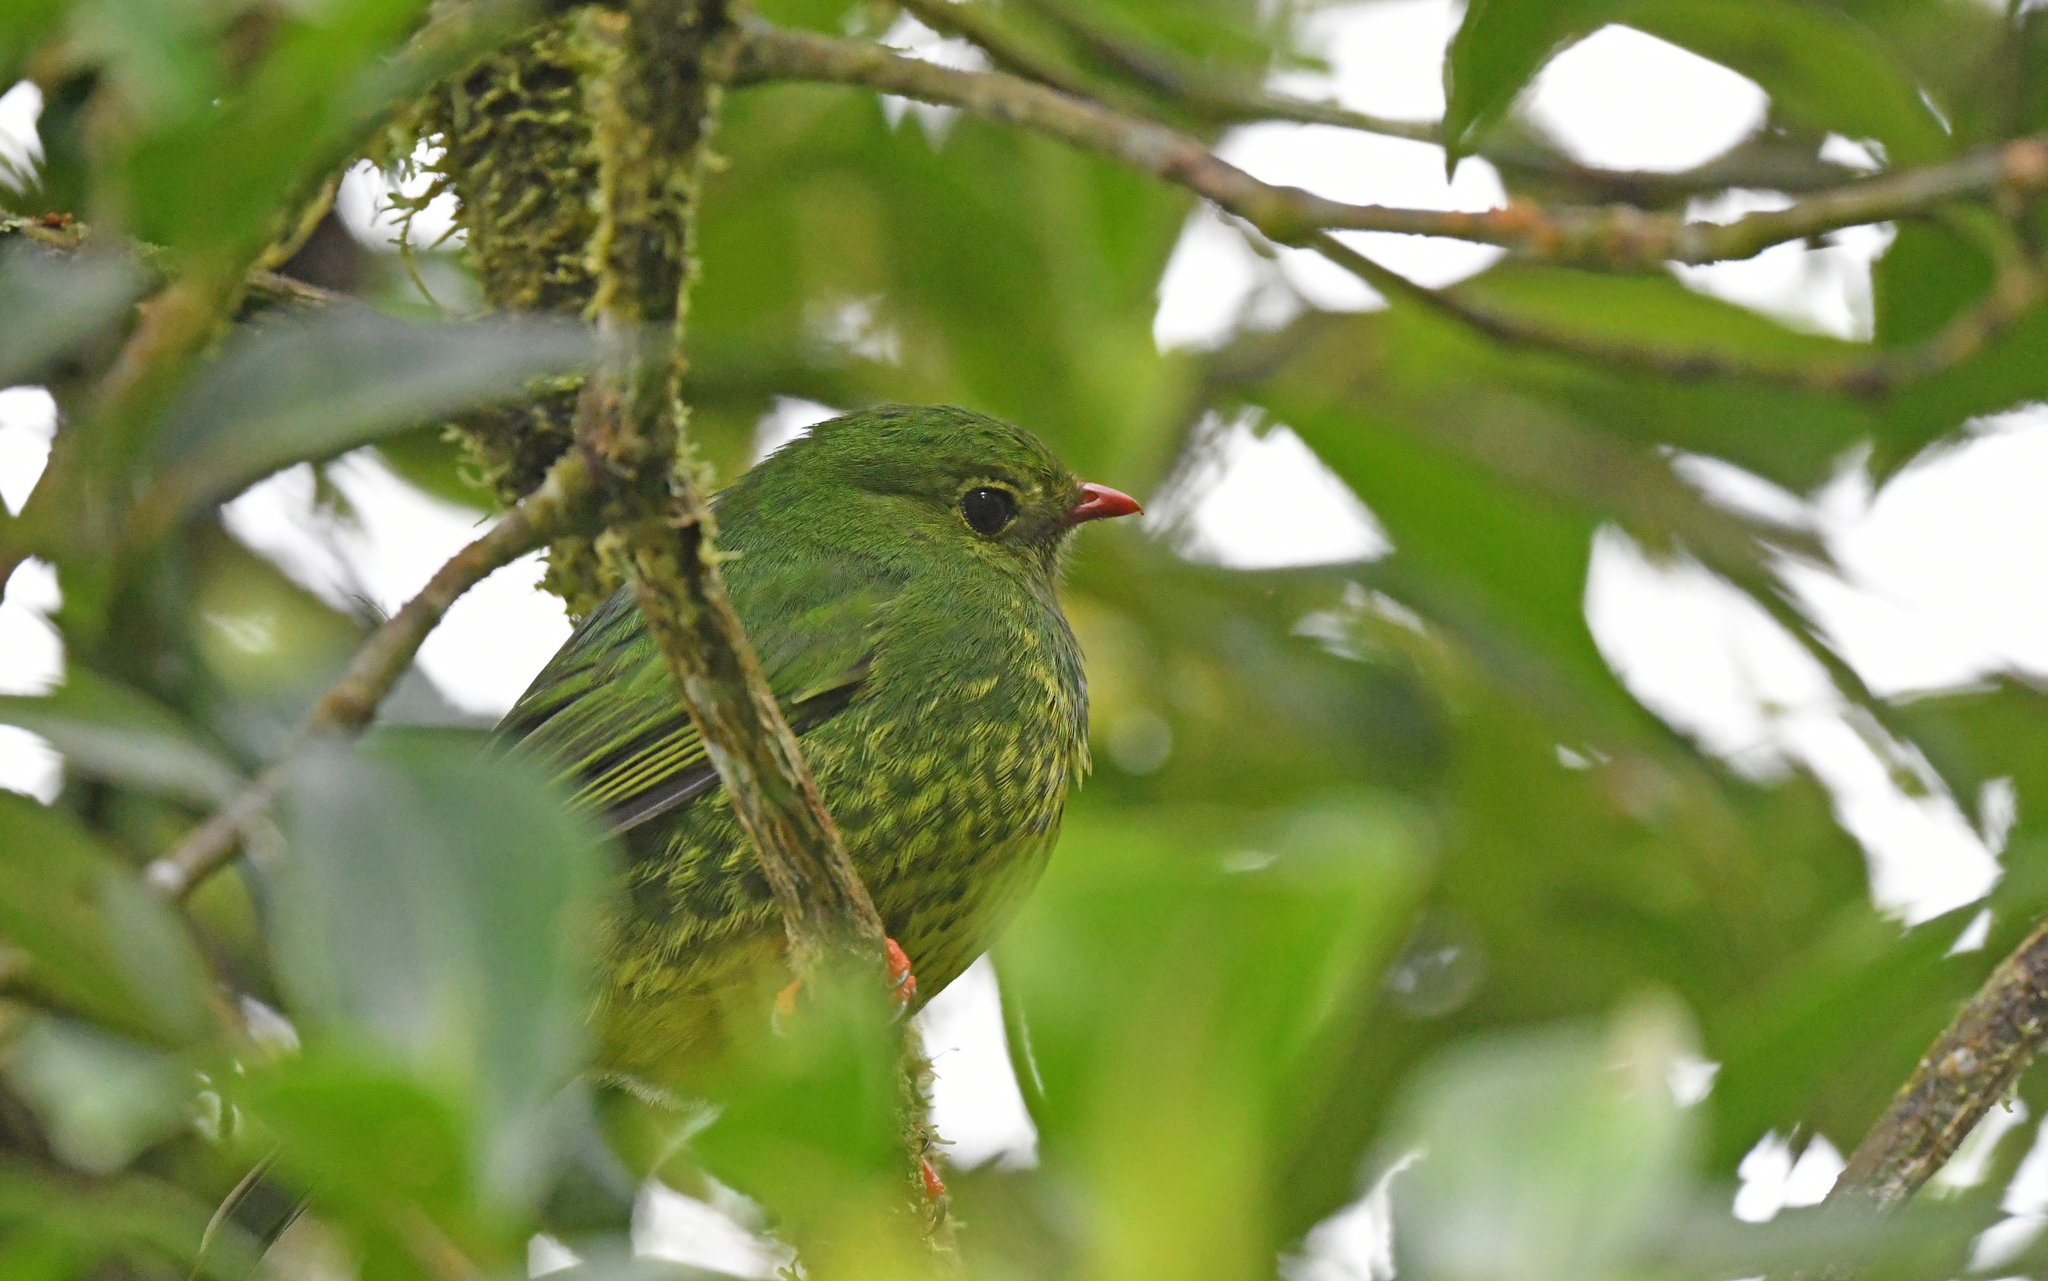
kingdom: Animalia
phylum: Chordata
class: Aves
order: Passeriformes
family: Cotingidae
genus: Pipreola
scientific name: Pipreola riefferii
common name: Green-and-black fruiteater
